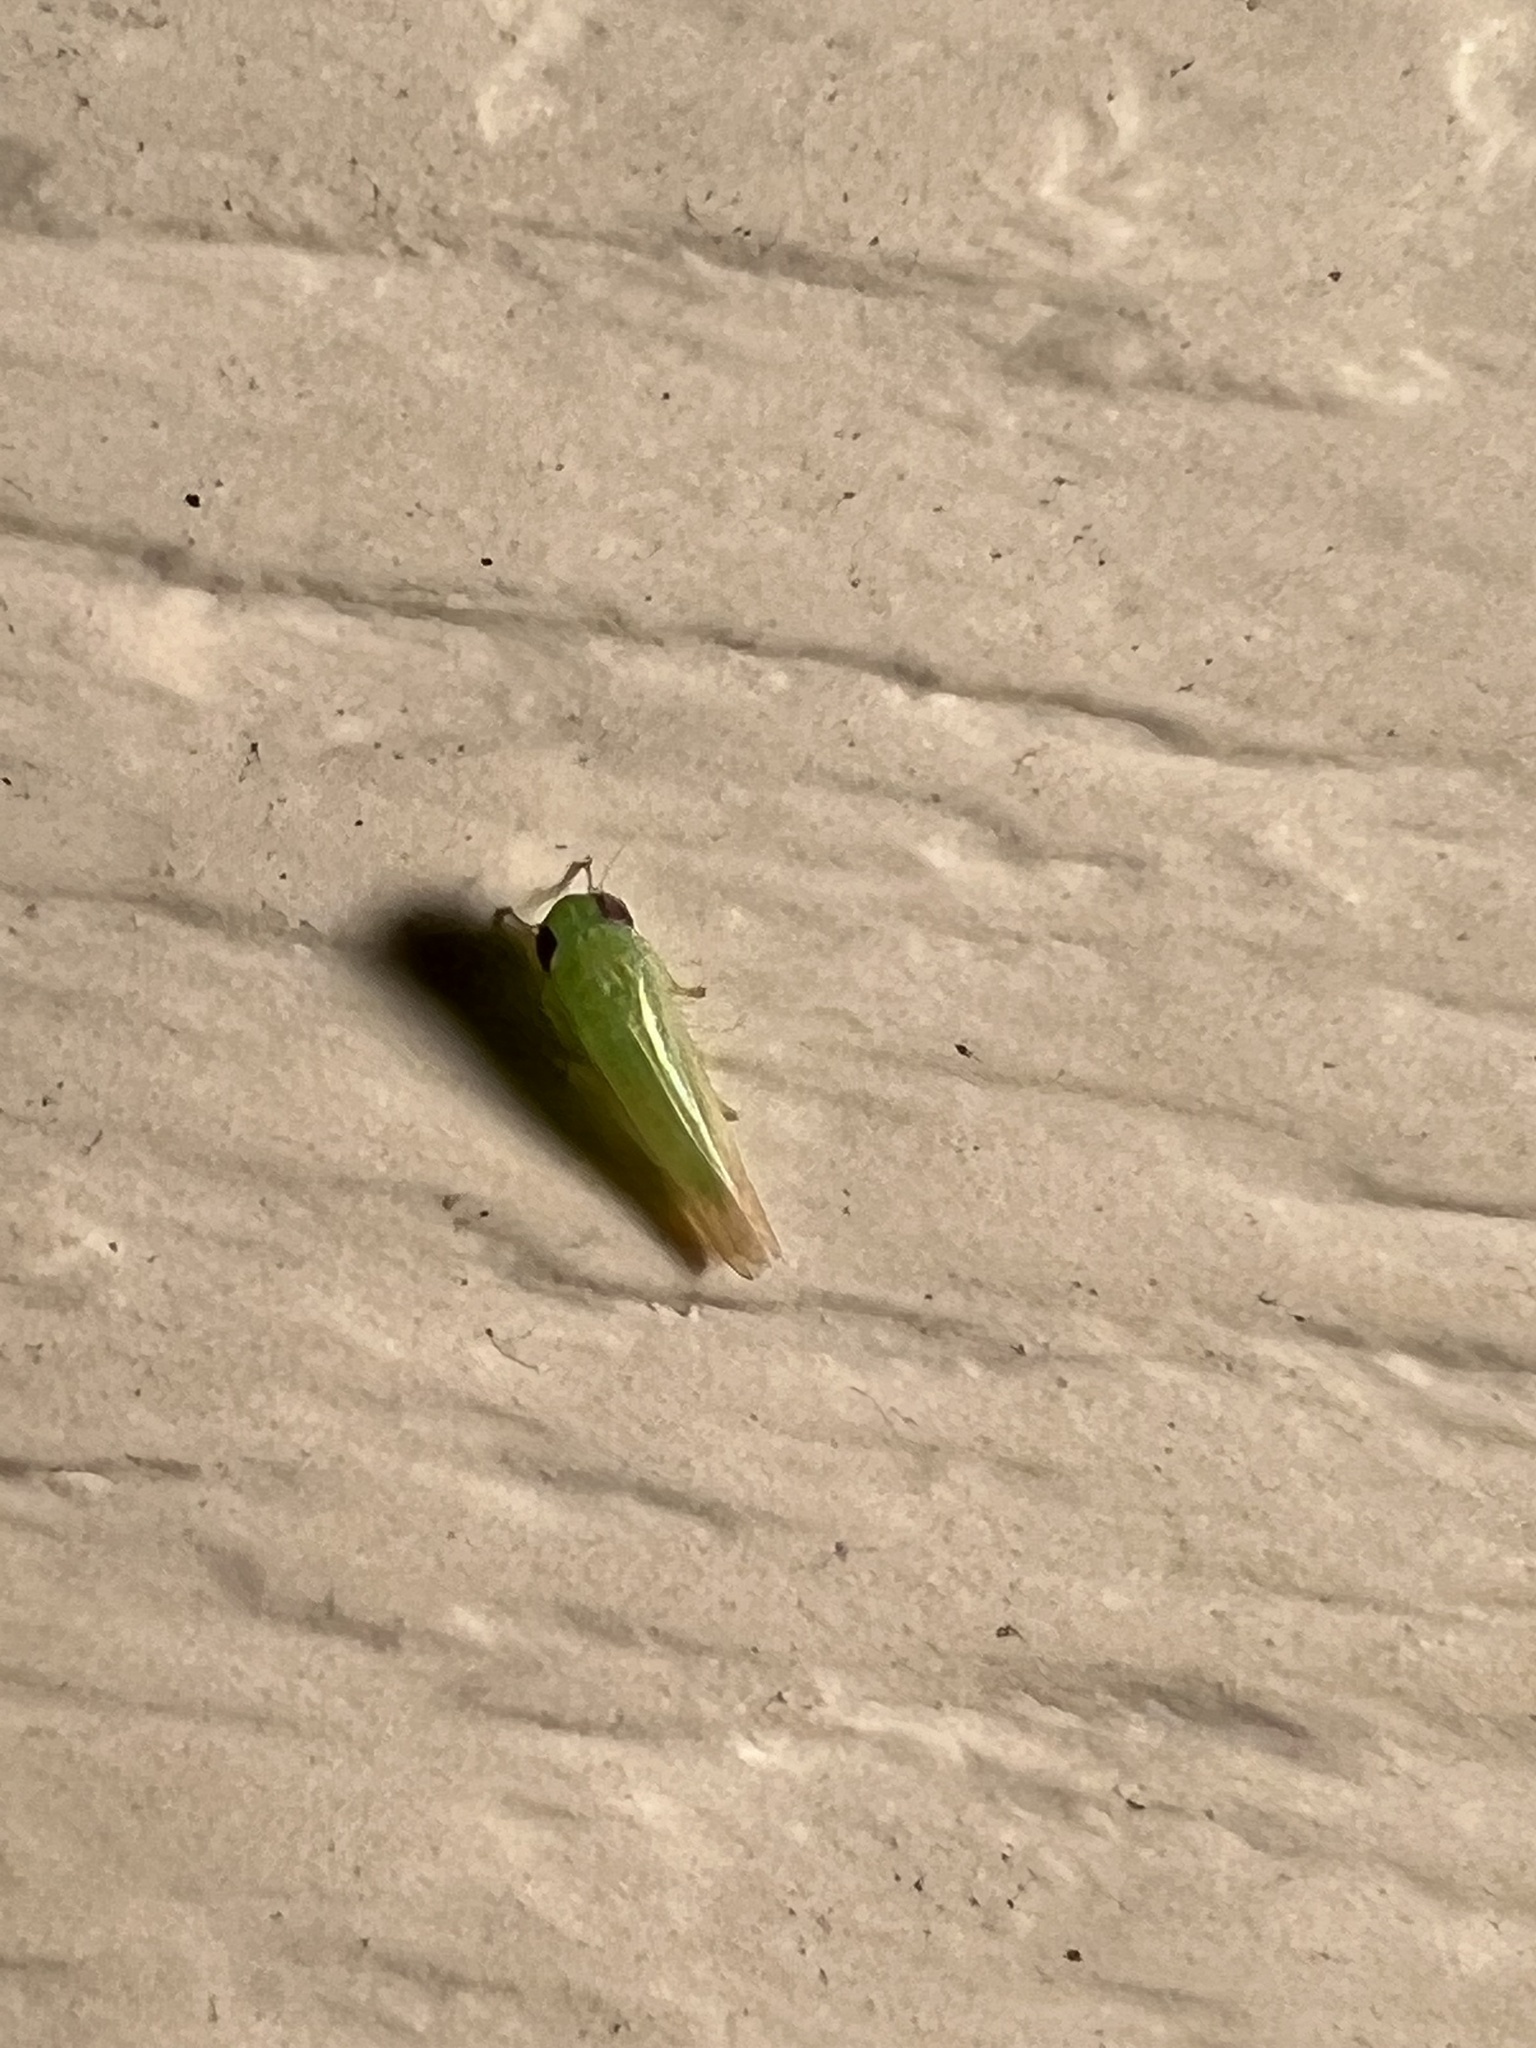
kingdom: Animalia
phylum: Arthropoda
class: Insecta
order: Hemiptera
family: Cicadellidae
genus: Empoasca
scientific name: Empoasca fabae
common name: Potato leafhopper
